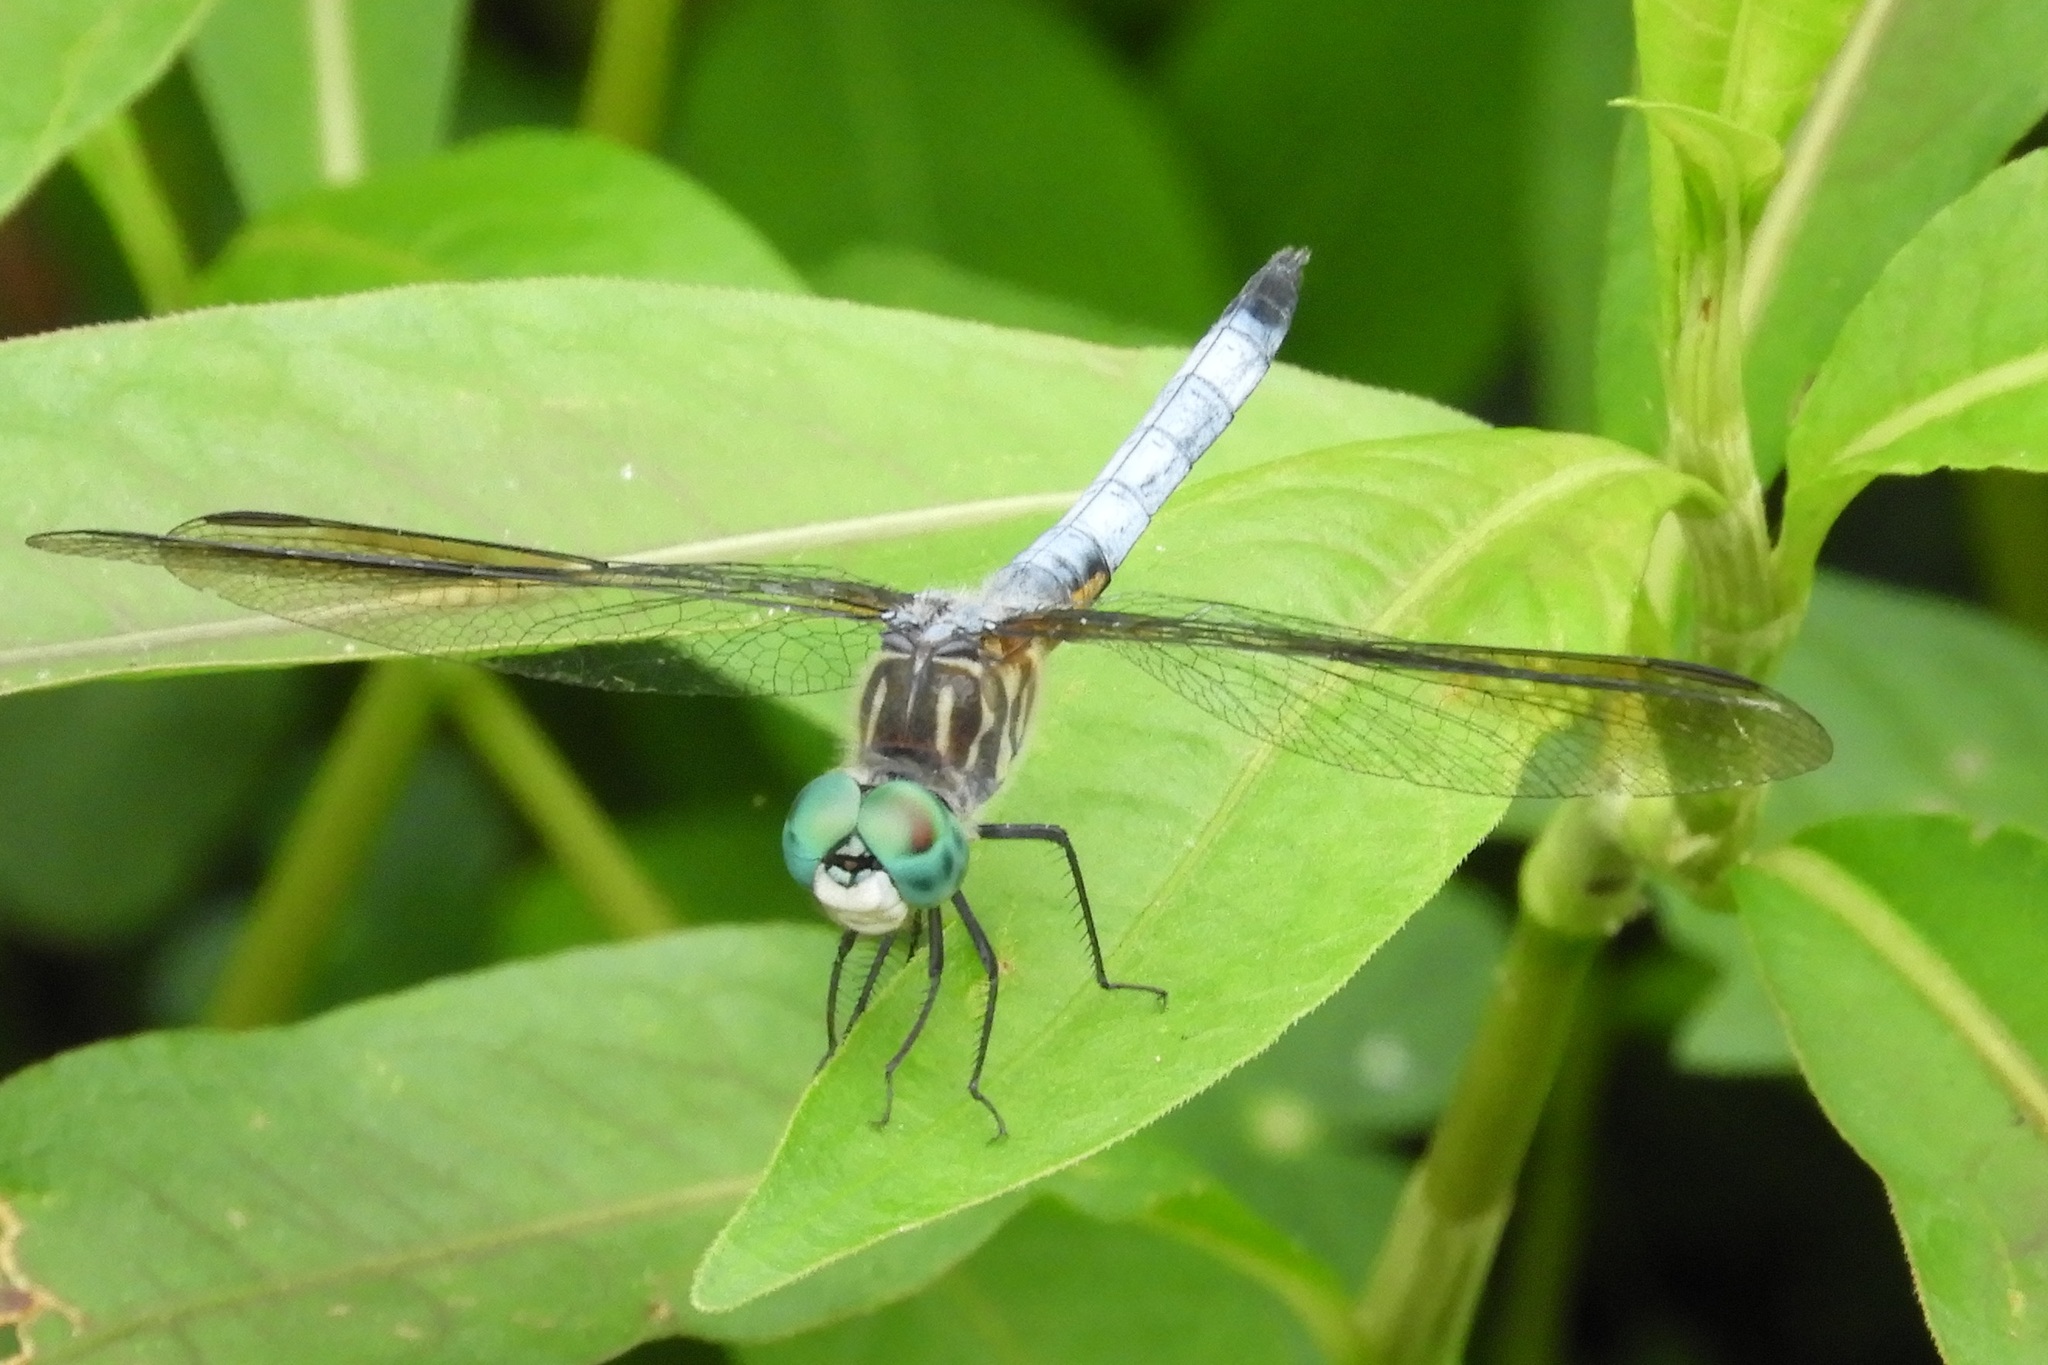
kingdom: Animalia
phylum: Arthropoda
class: Insecta
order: Odonata
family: Libellulidae
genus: Pachydiplax
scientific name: Pachydiplax longipennis
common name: Blue dasher
